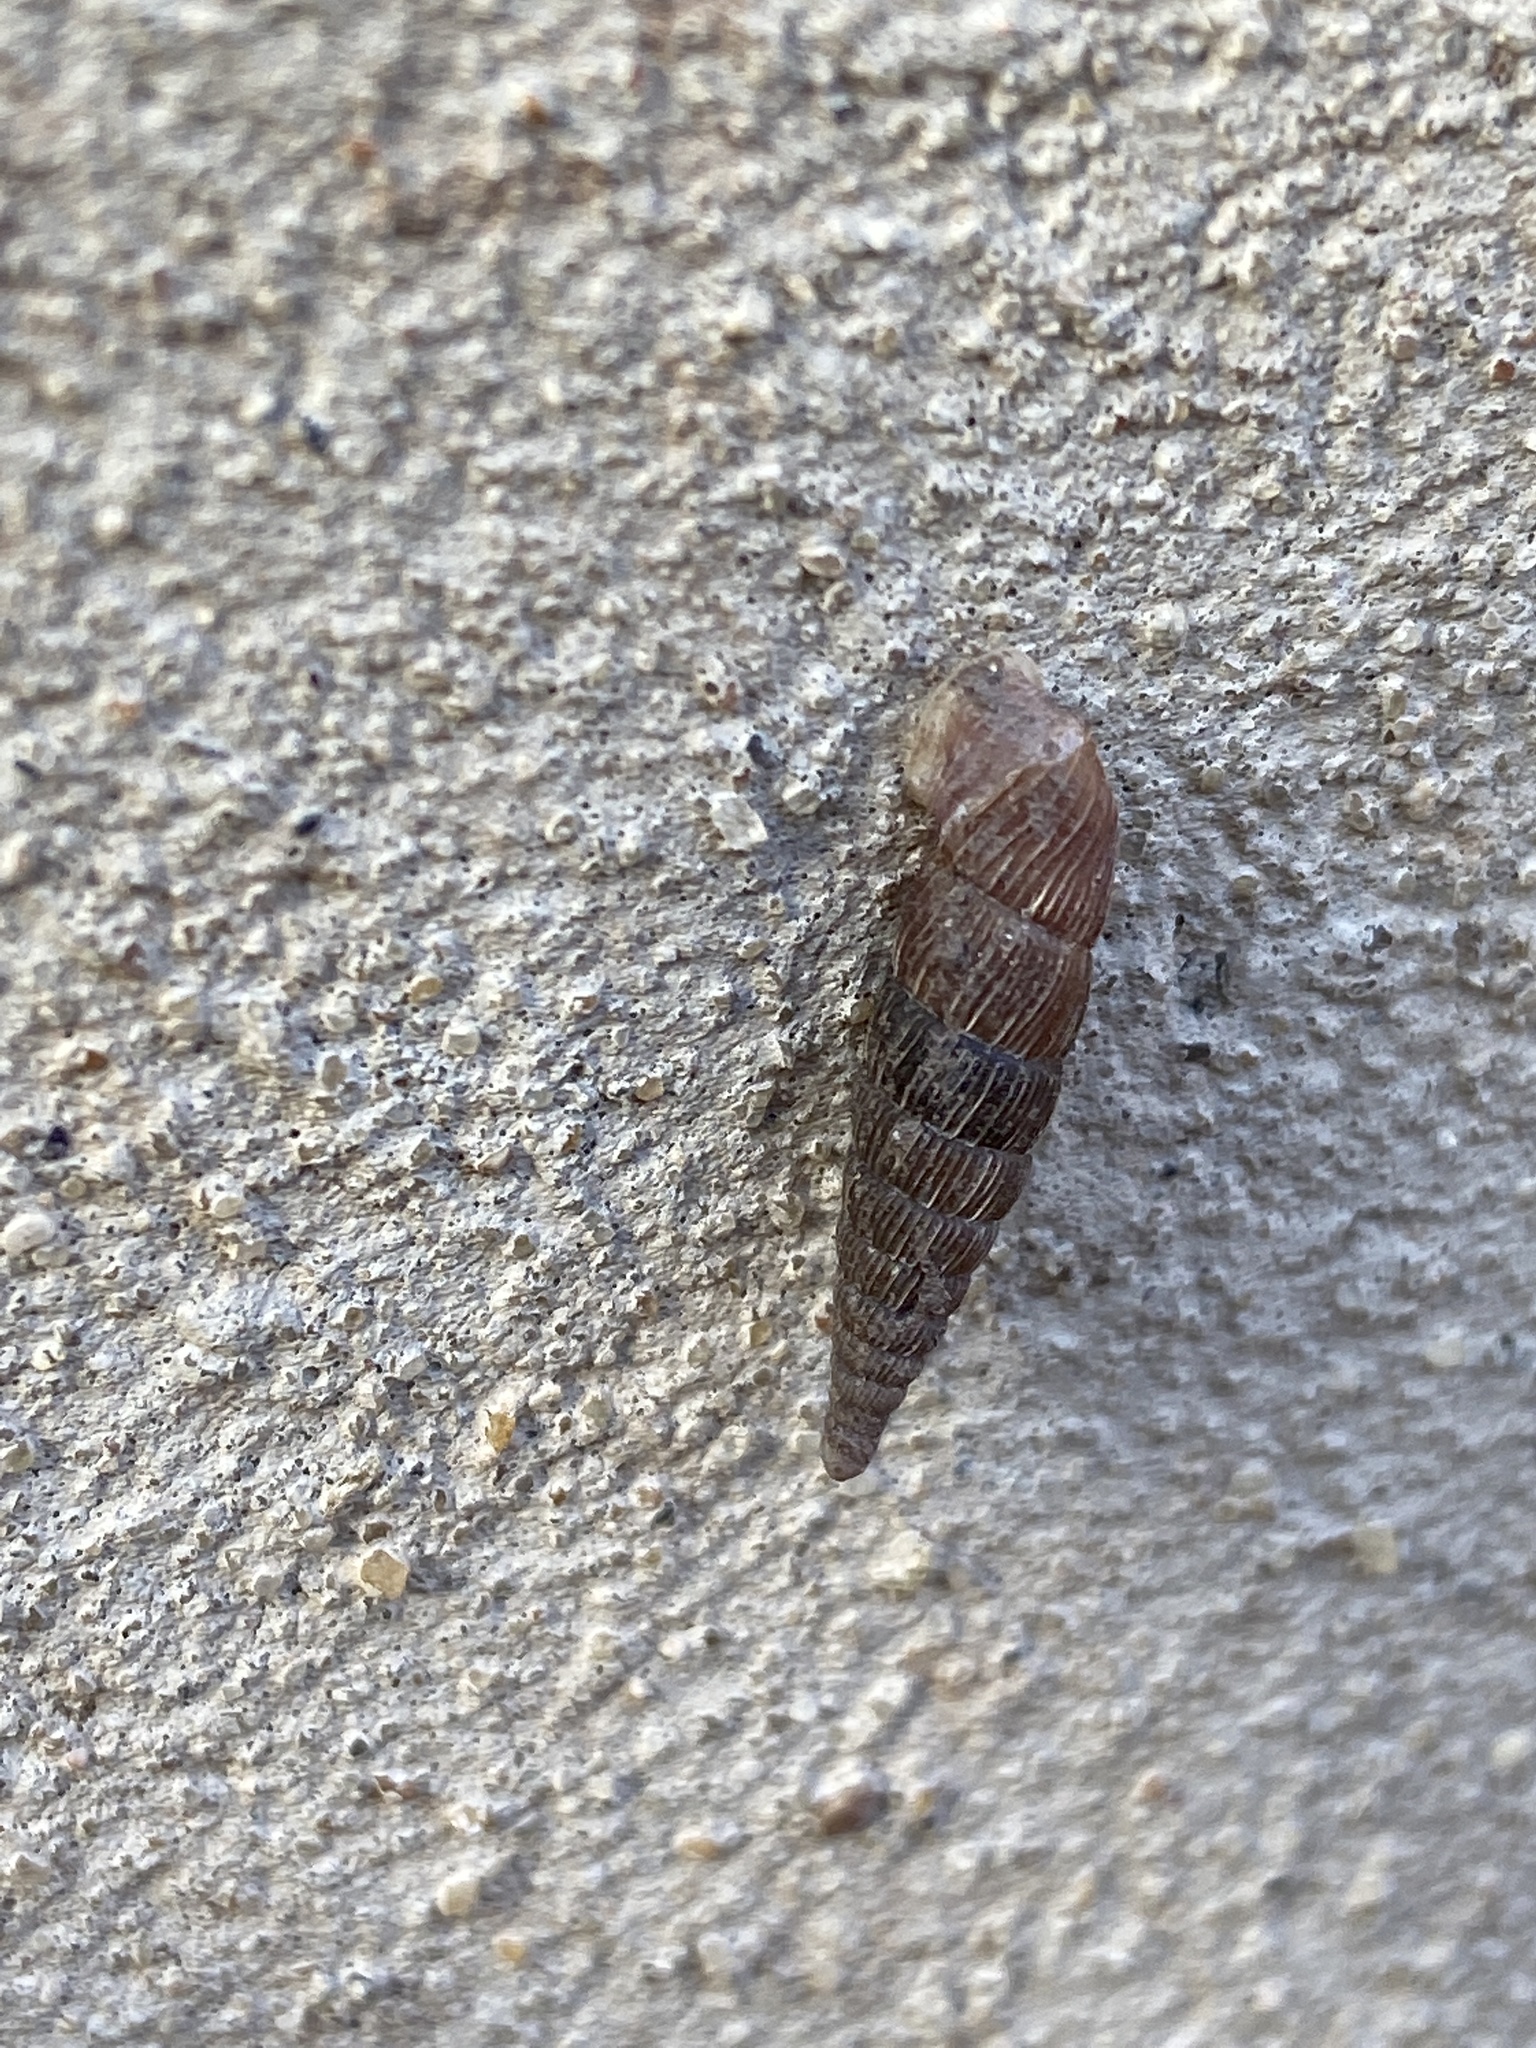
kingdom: Animalia
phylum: Mollusca
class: Gastropoda
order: Stylommatophora
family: Clausiliidae
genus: Alinda
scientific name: Alinda biplicata
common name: Thames door snail
